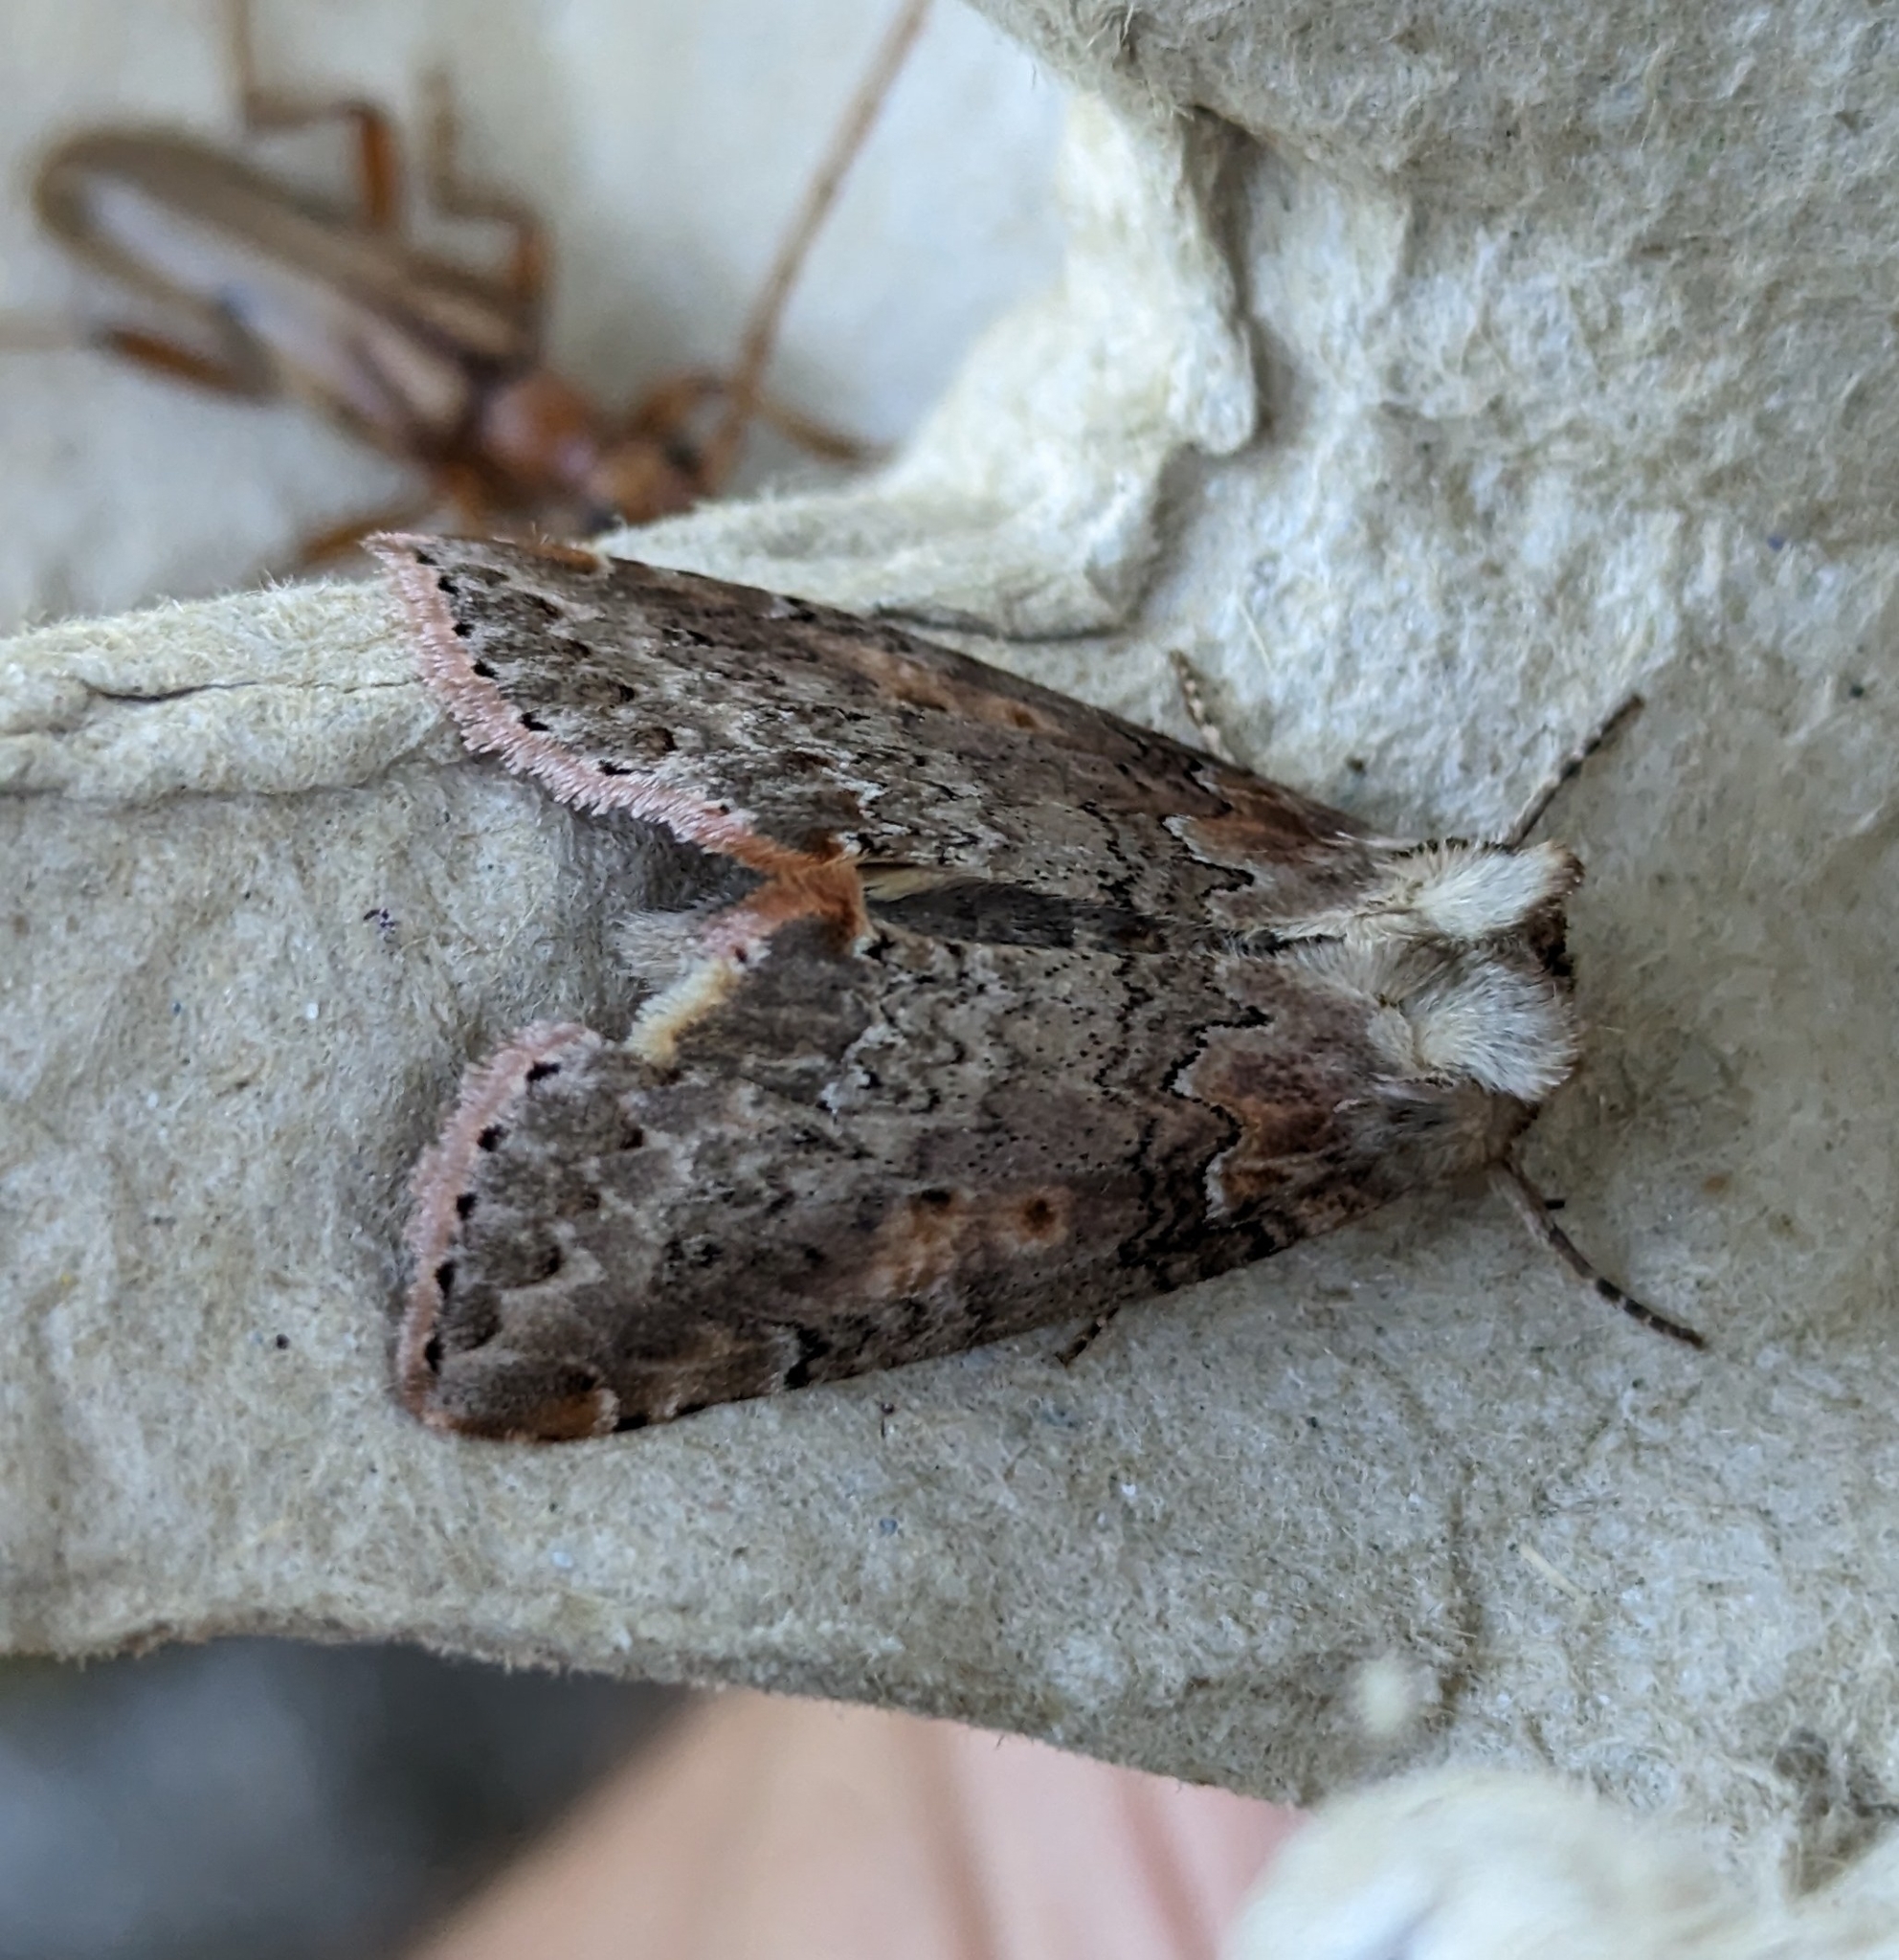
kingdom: Animalia
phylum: Arthropoda
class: Insecta
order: Lepidoptera
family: Drepanidae
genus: Pseudothyatira
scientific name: Pseudothyatira cymatophoroides
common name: Tufted thyatirid moth
